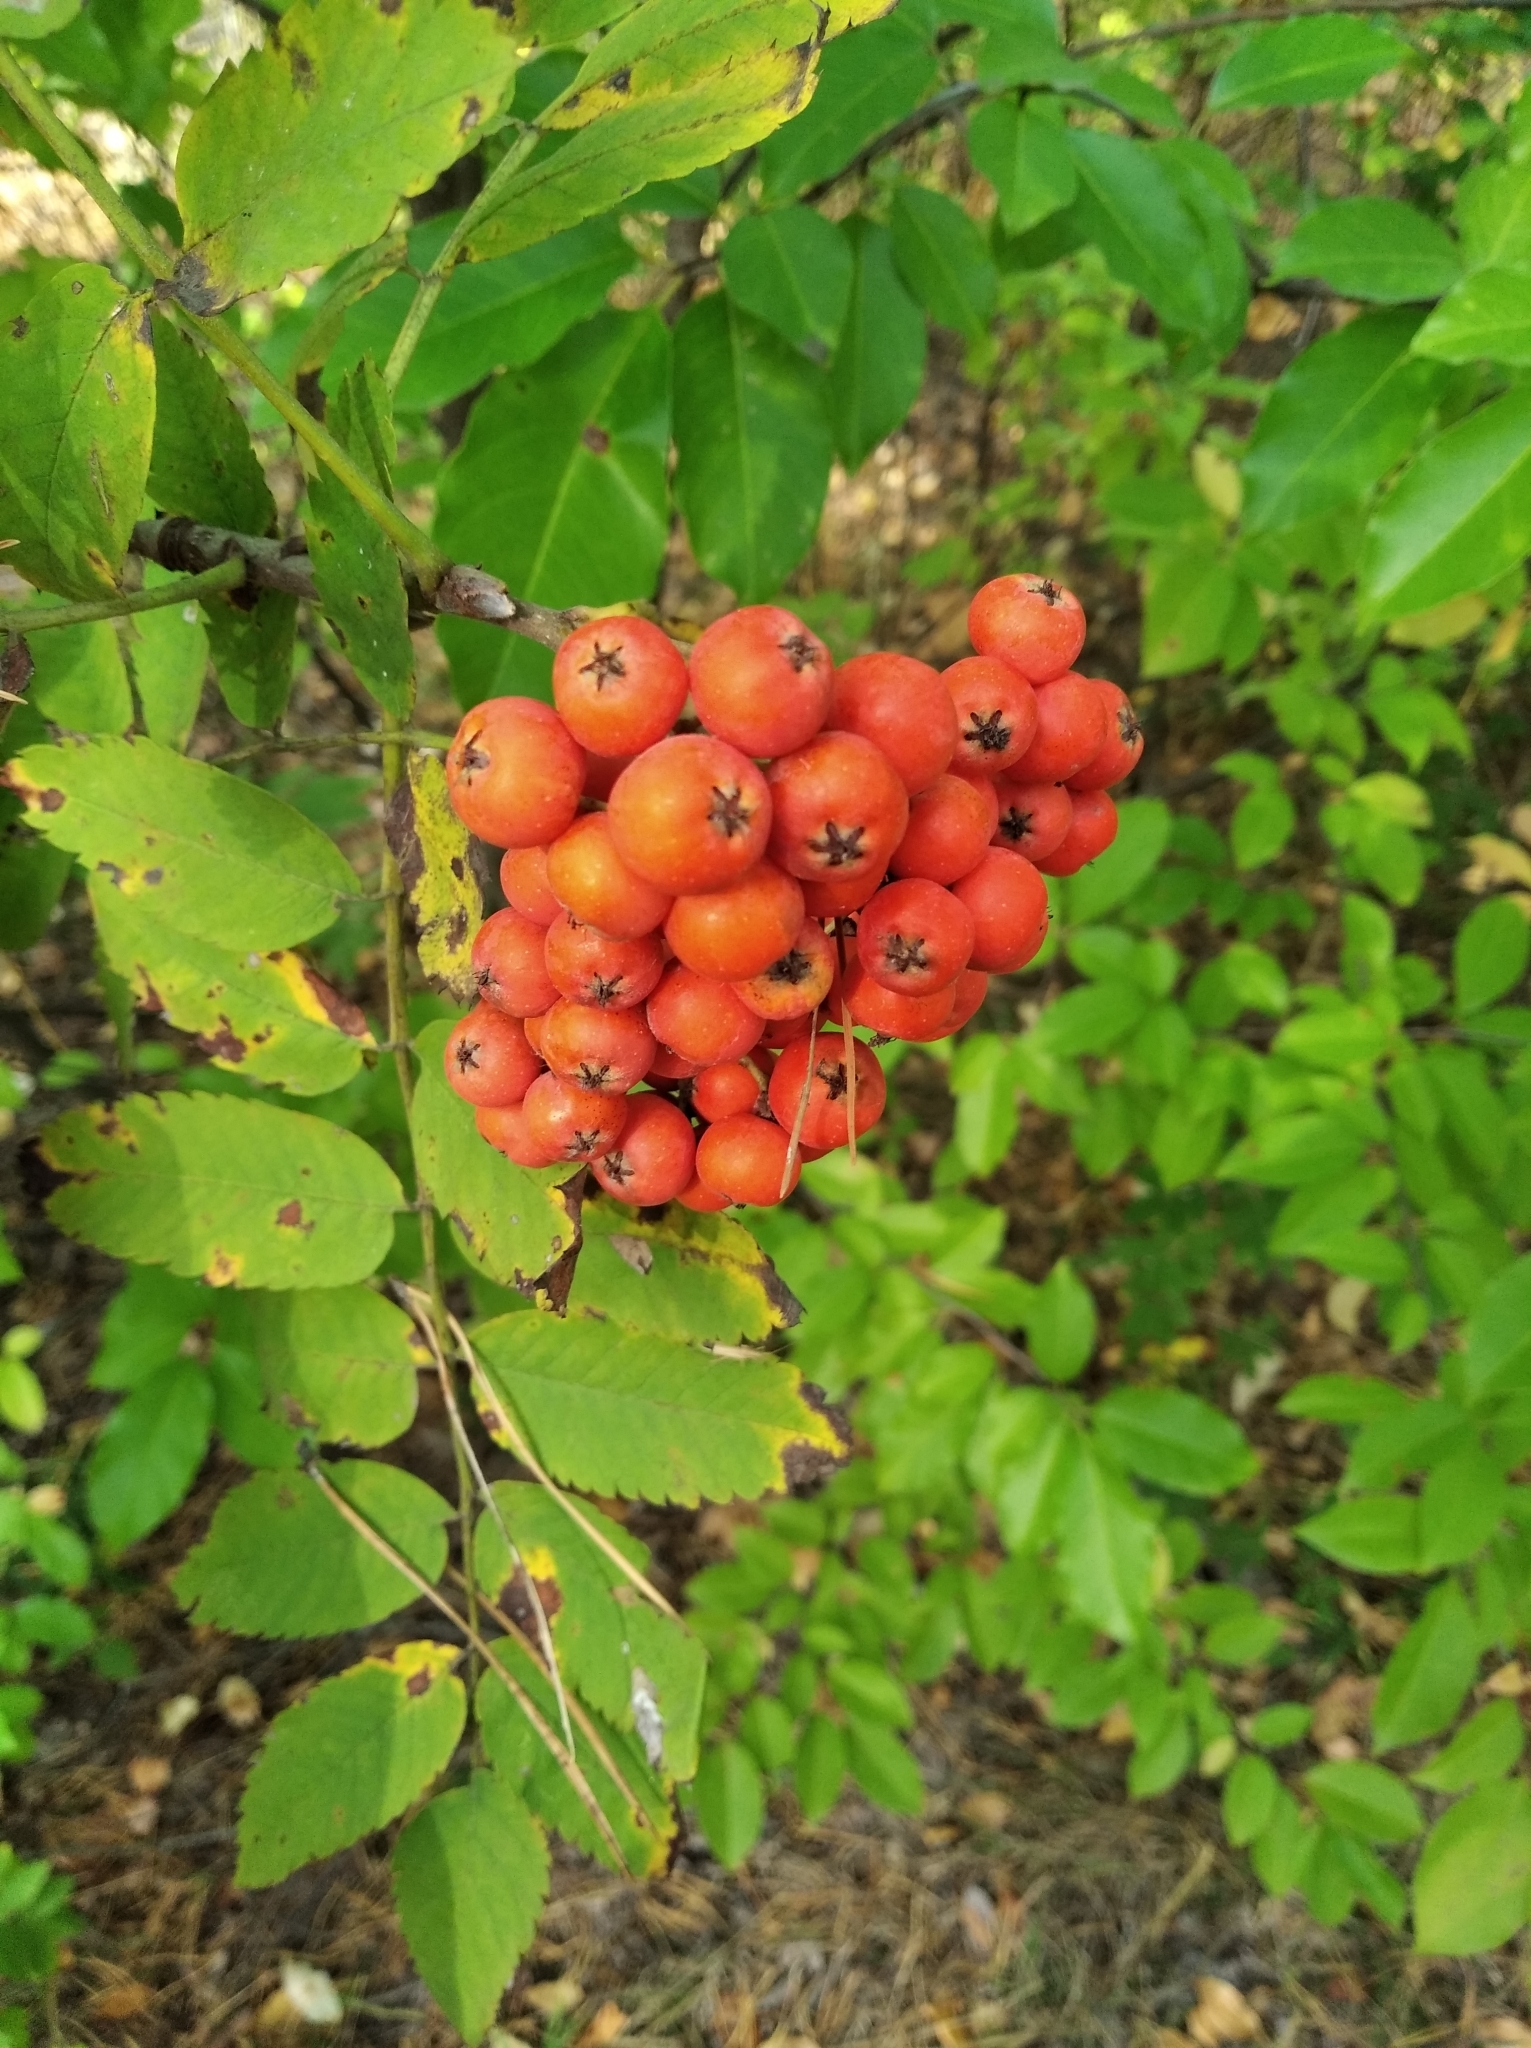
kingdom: Plantae
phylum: Tracheophyta
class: Magnoliopsida
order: Rosales
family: Rosaceae
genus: Sorbus
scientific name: Sorbus aucuparia
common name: Rowan
